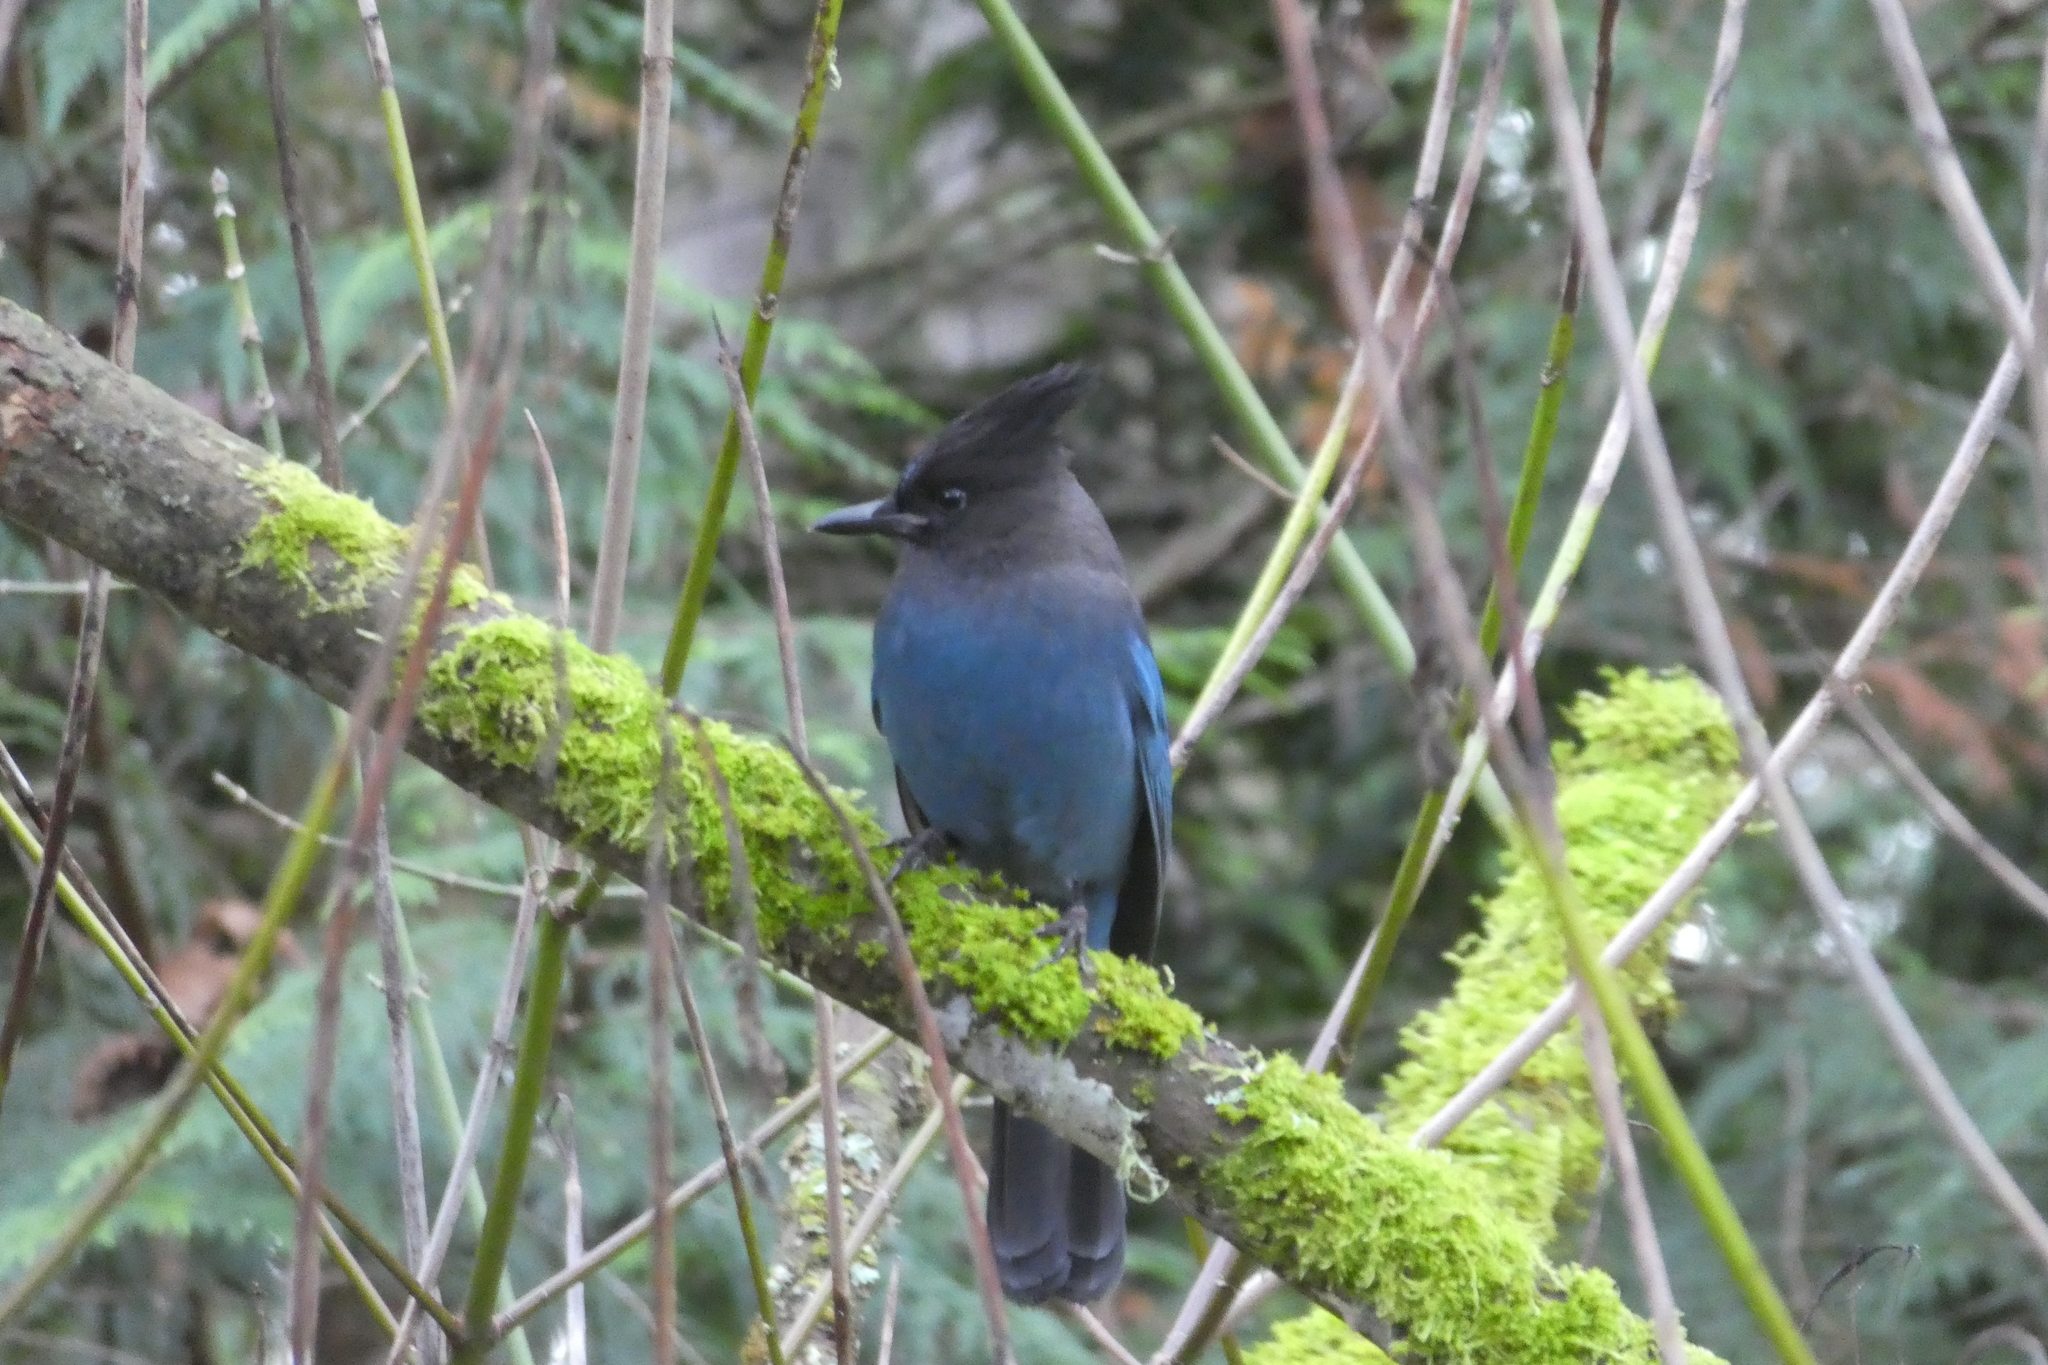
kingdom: Animalia
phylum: Chordata
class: Aves
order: Passeriformes
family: Corvidae
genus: Cyanocitta
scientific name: Cyanocitta stelleri
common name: Steller's jay
